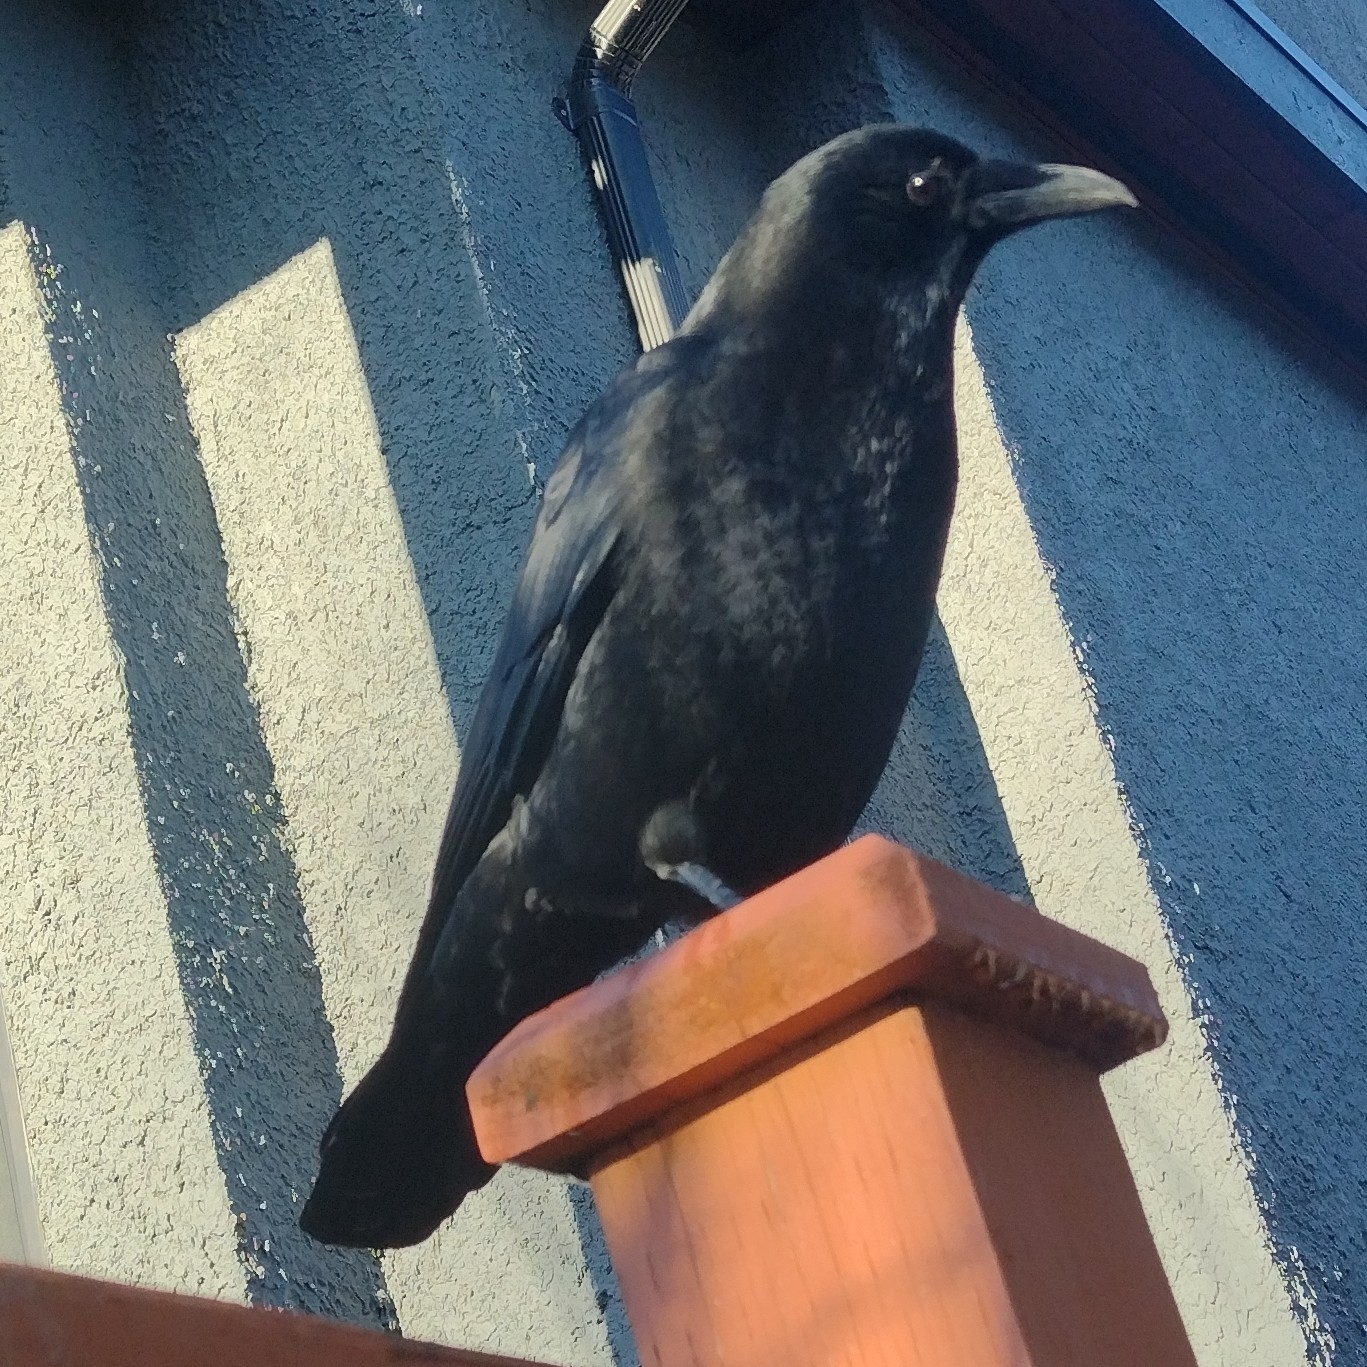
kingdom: Animalia
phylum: Chordata
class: Aves
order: Passeriformes
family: Corvidae
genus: Corvus
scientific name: Corvus brachyrhynchos
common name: American crow
